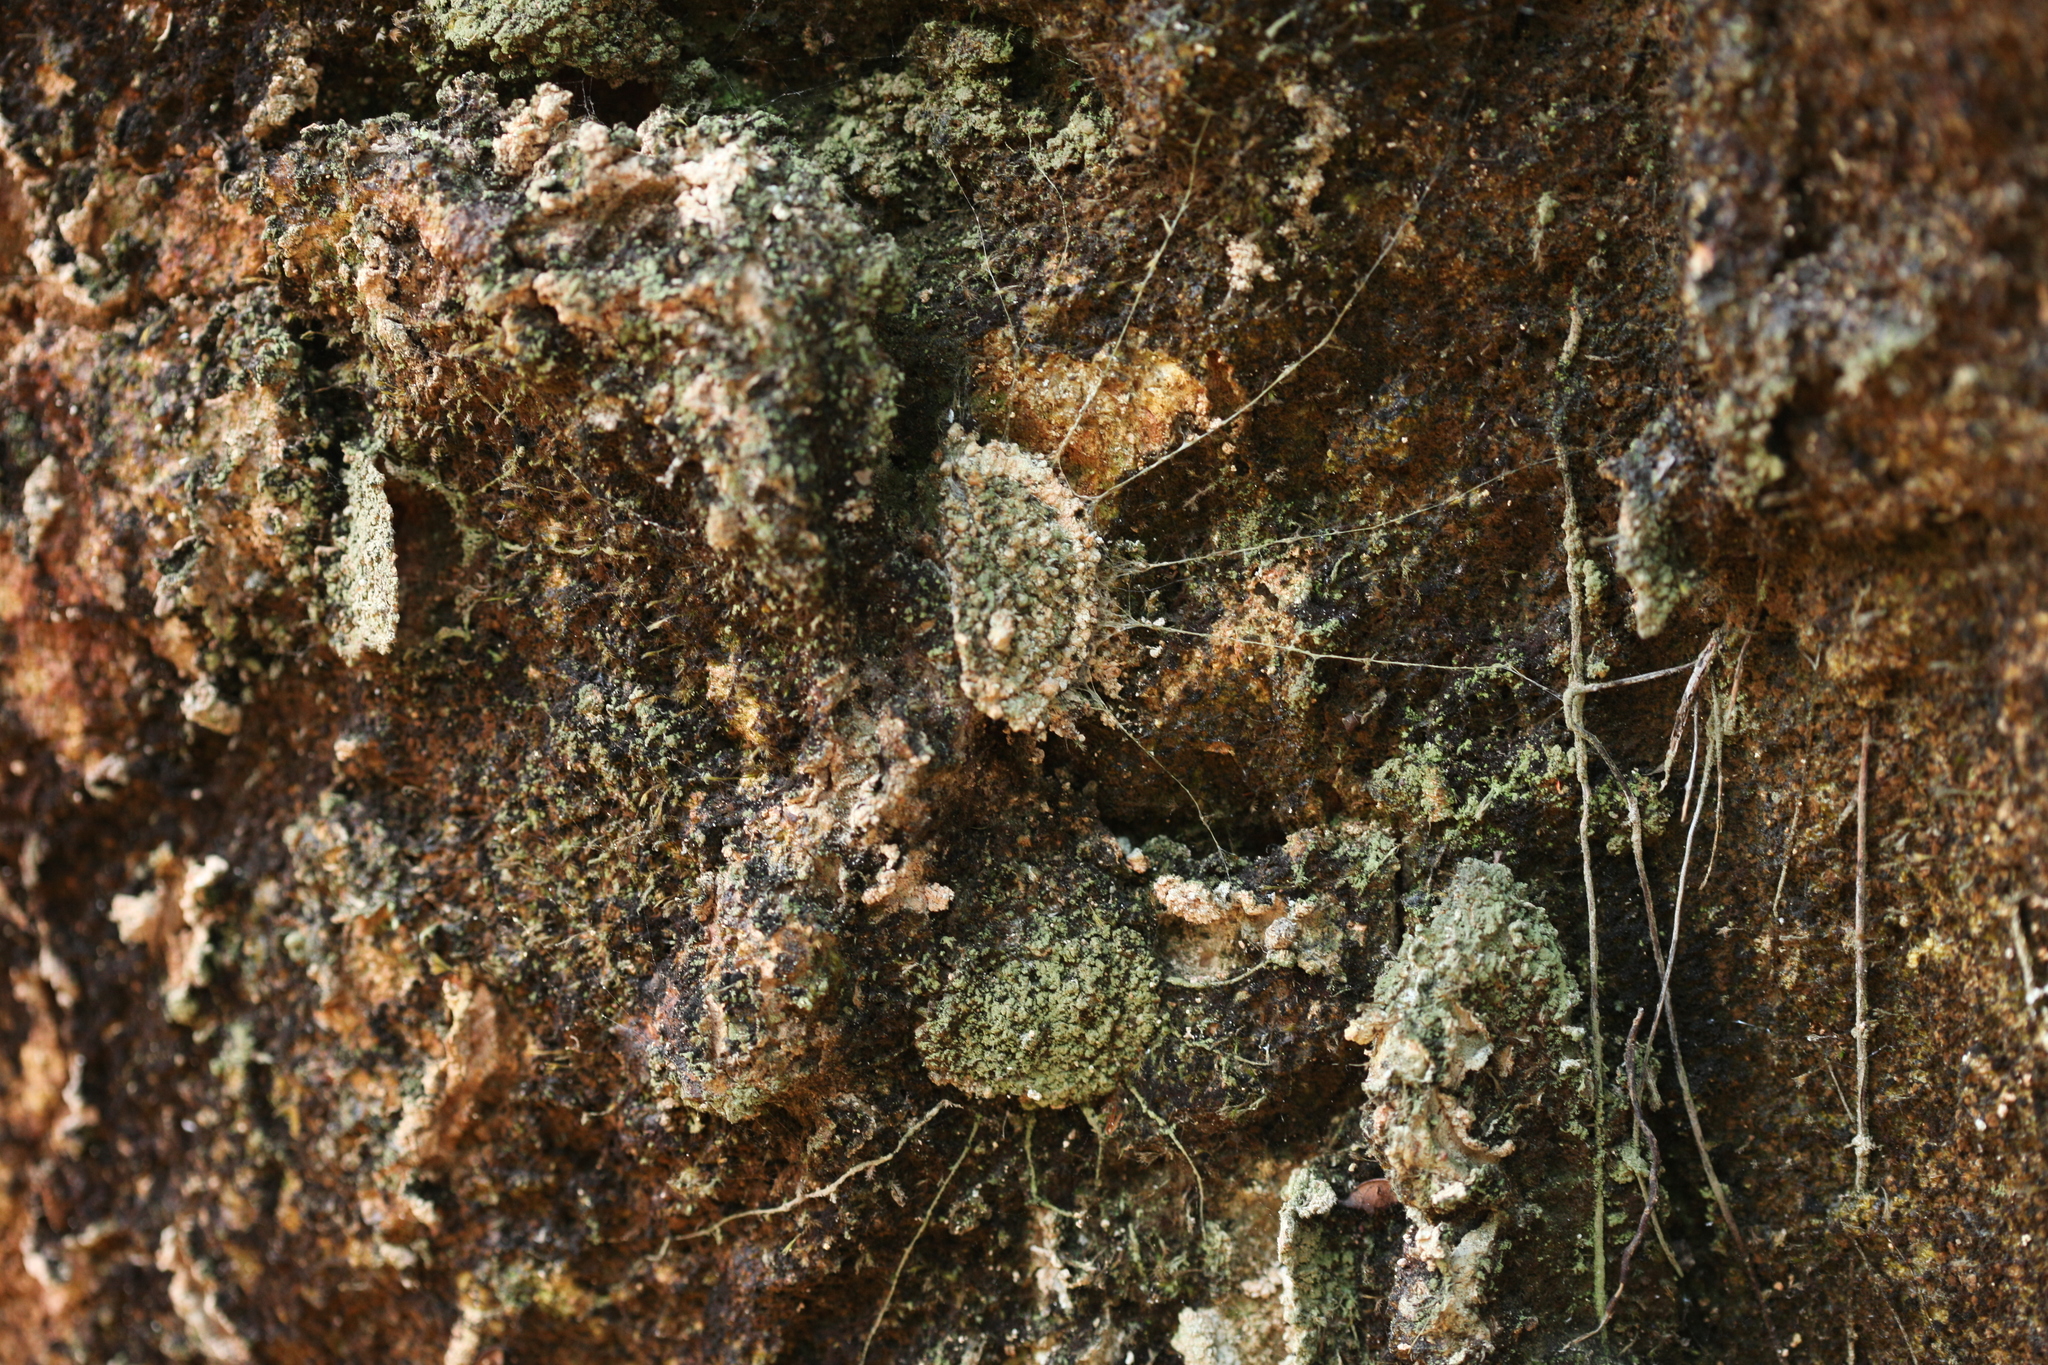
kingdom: Animalia
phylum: Arthropoda
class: Arachnida
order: Araneae
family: Liphistiidae
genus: Liphistius
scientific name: Liphistius nesioticus
